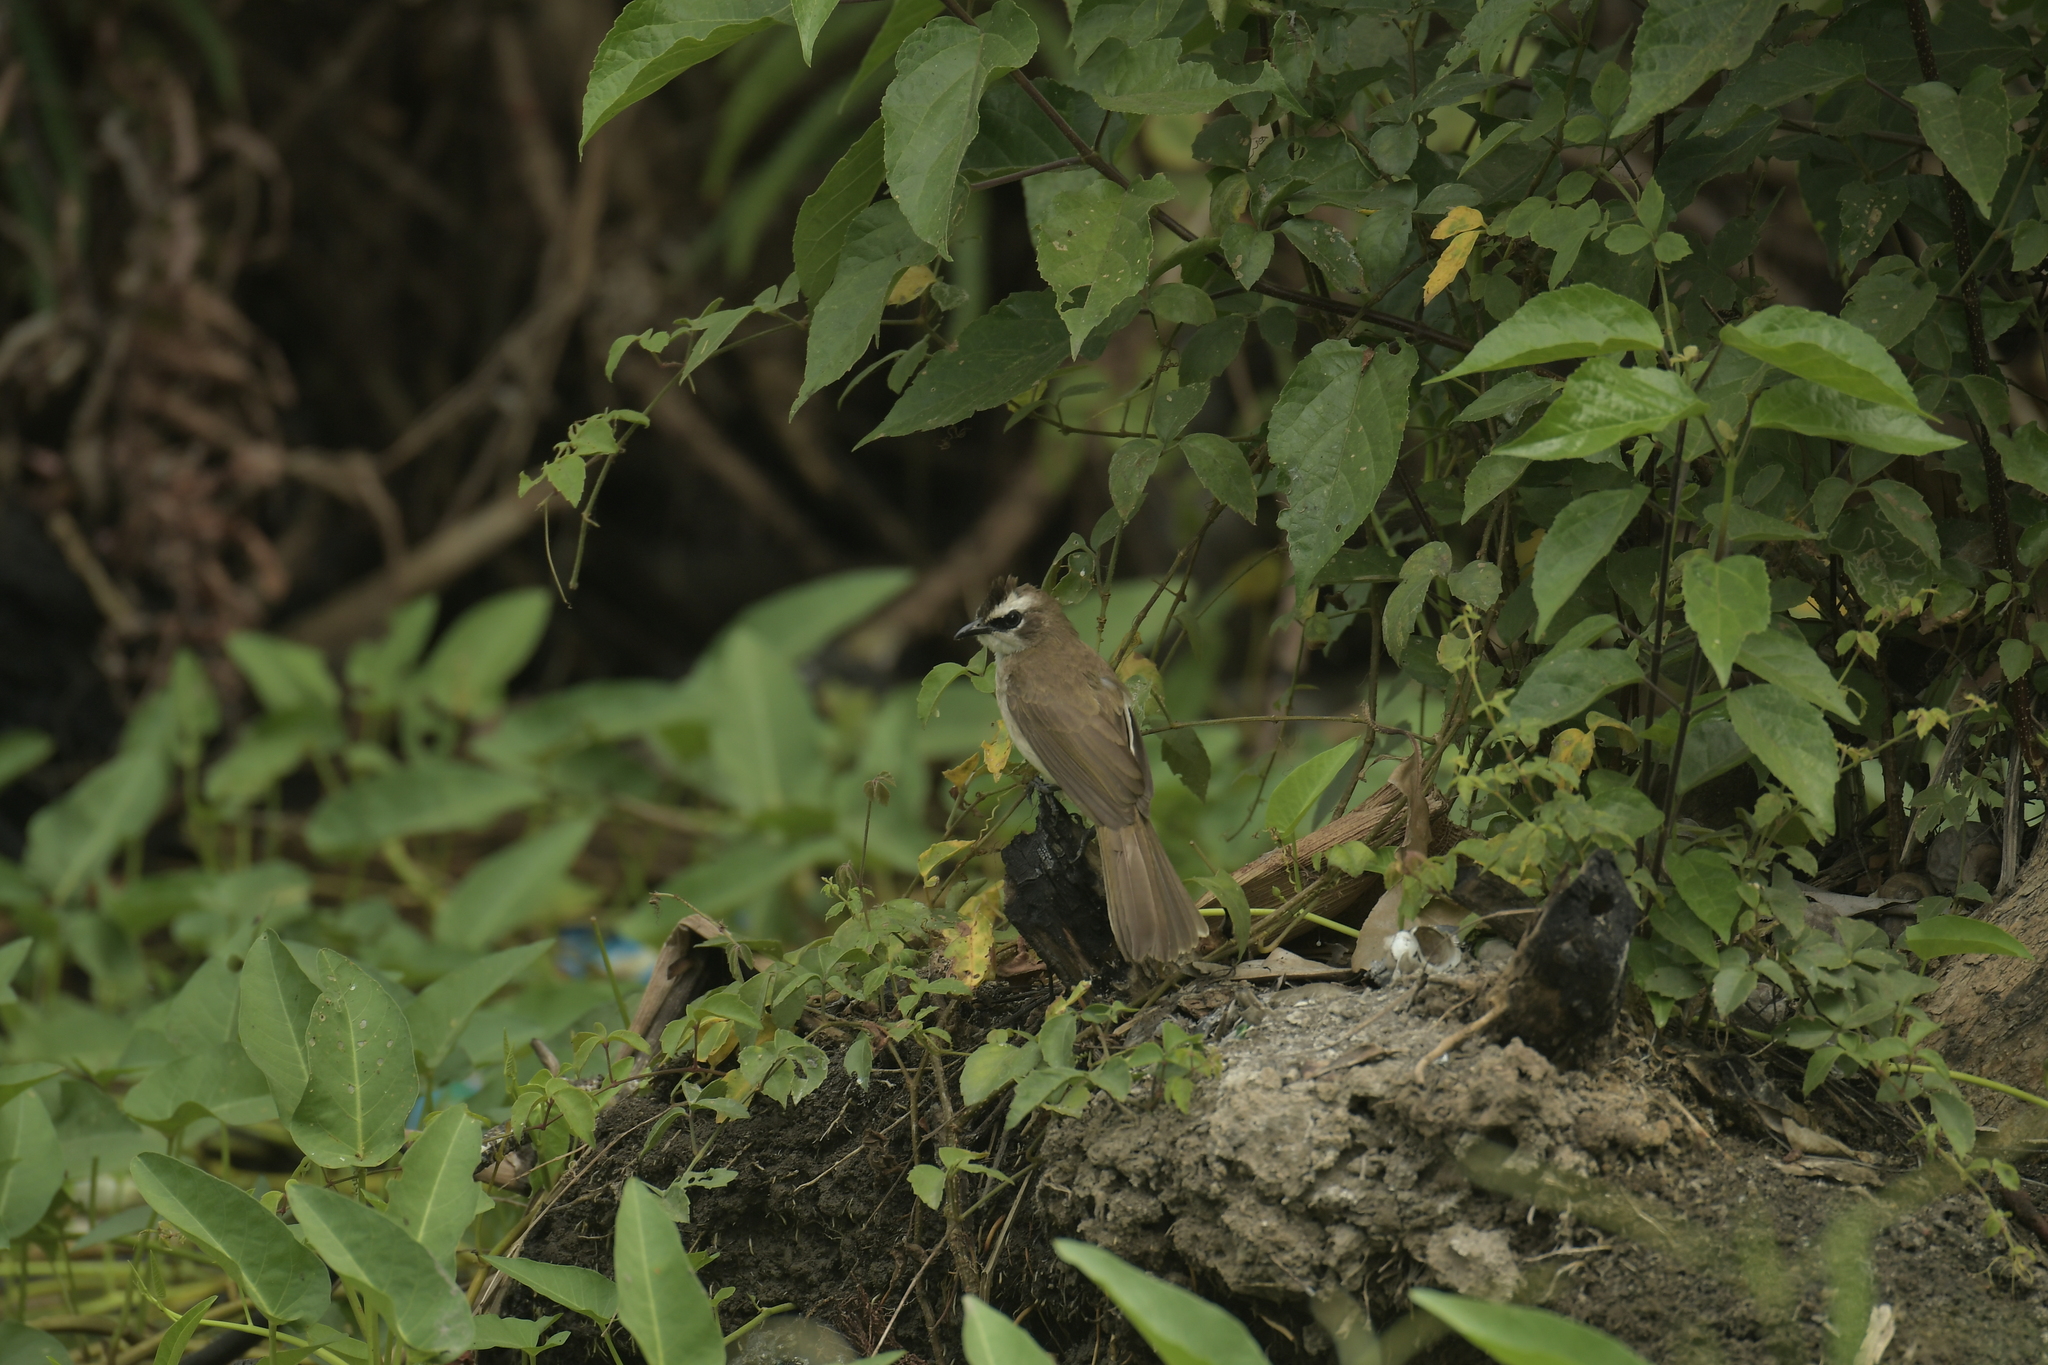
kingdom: Animalia
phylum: Chordata
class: Aves
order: Passeriformes
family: Pycnonotidae
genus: Pycnonotus
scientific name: Pycnonotus goiavier
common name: Yellow-vented bulbul
